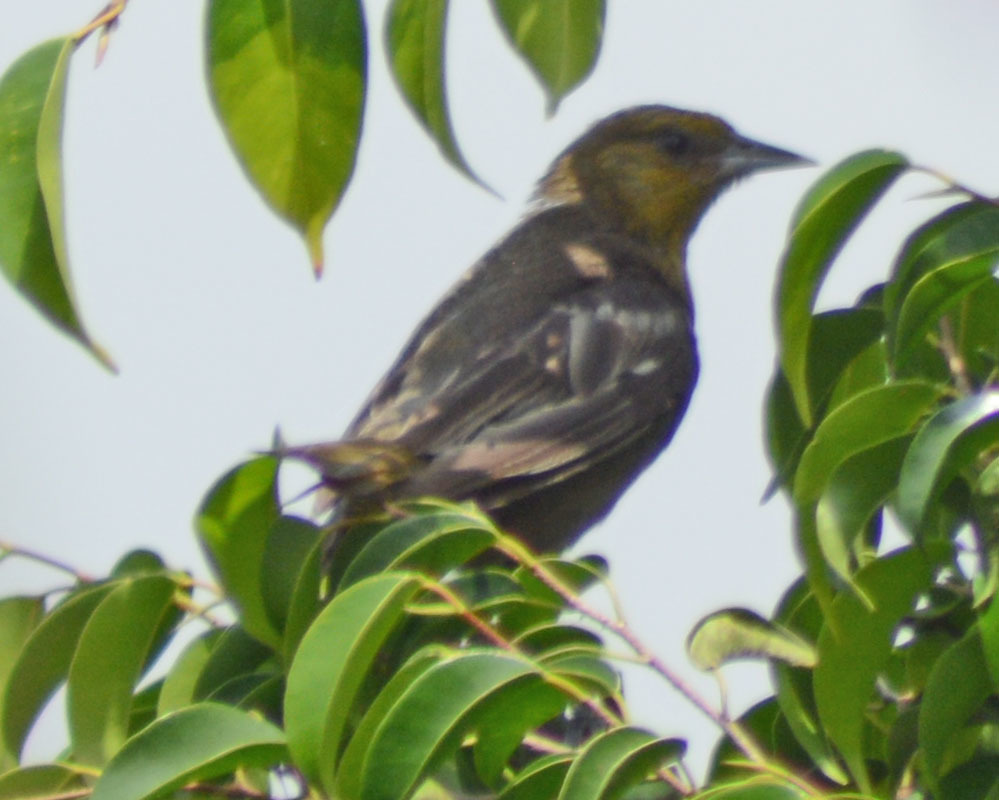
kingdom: Animalia
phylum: Chordata
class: Aves
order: Passeriformes
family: Icteridae
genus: Icterus
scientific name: Icterus abeillei
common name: Black-backed oriole
